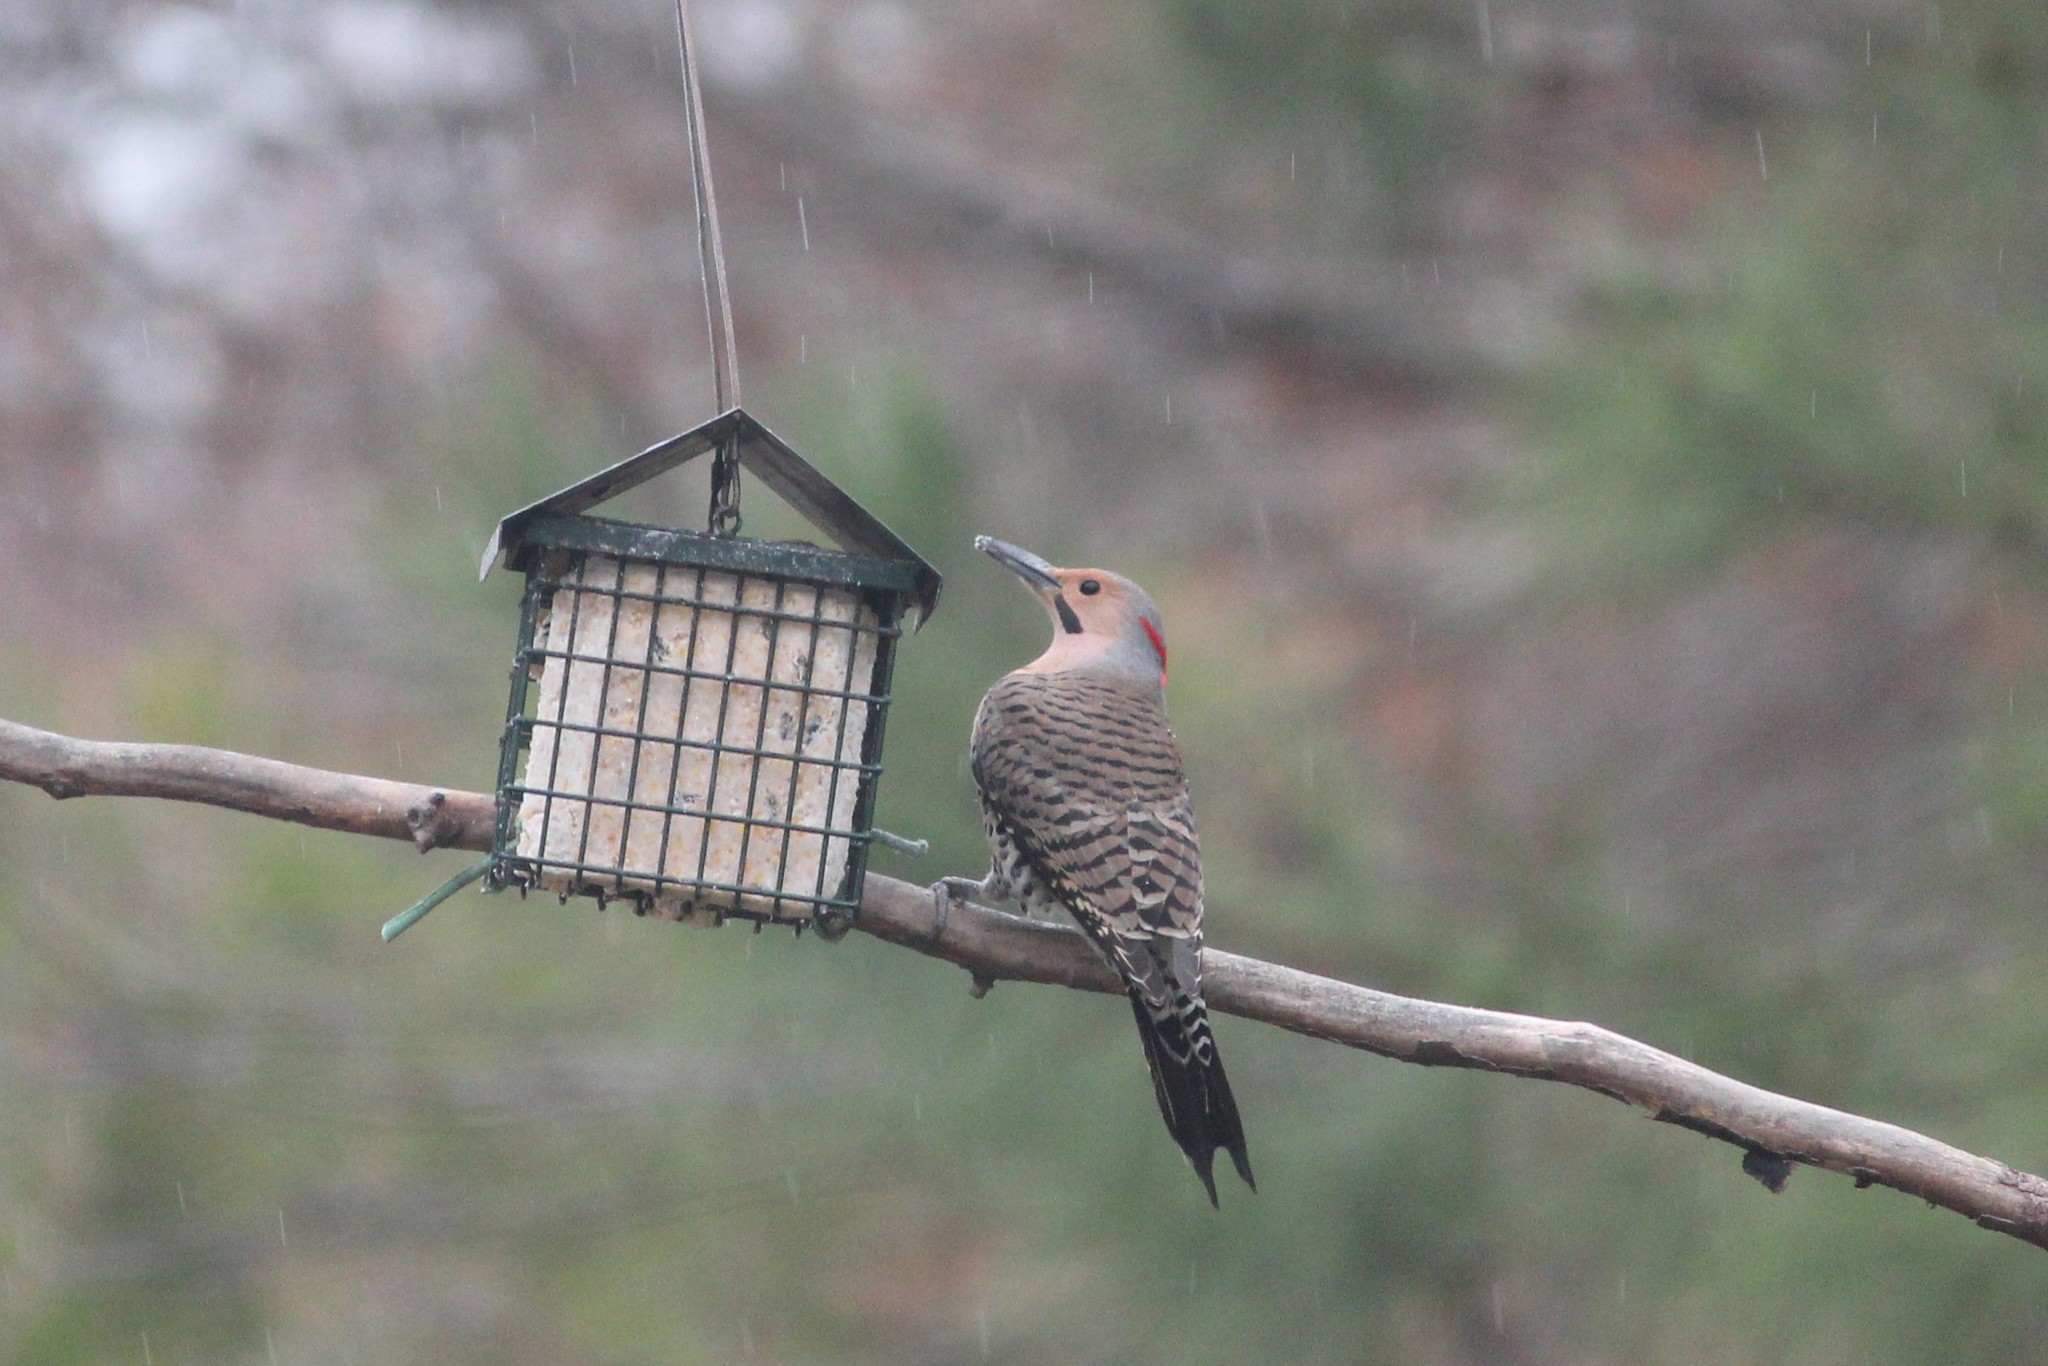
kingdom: Animalia
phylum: Chordata
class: Aves
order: Piciformes
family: Picidae
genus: Colaptes
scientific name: Colaptes auratus
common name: Northern flicker
